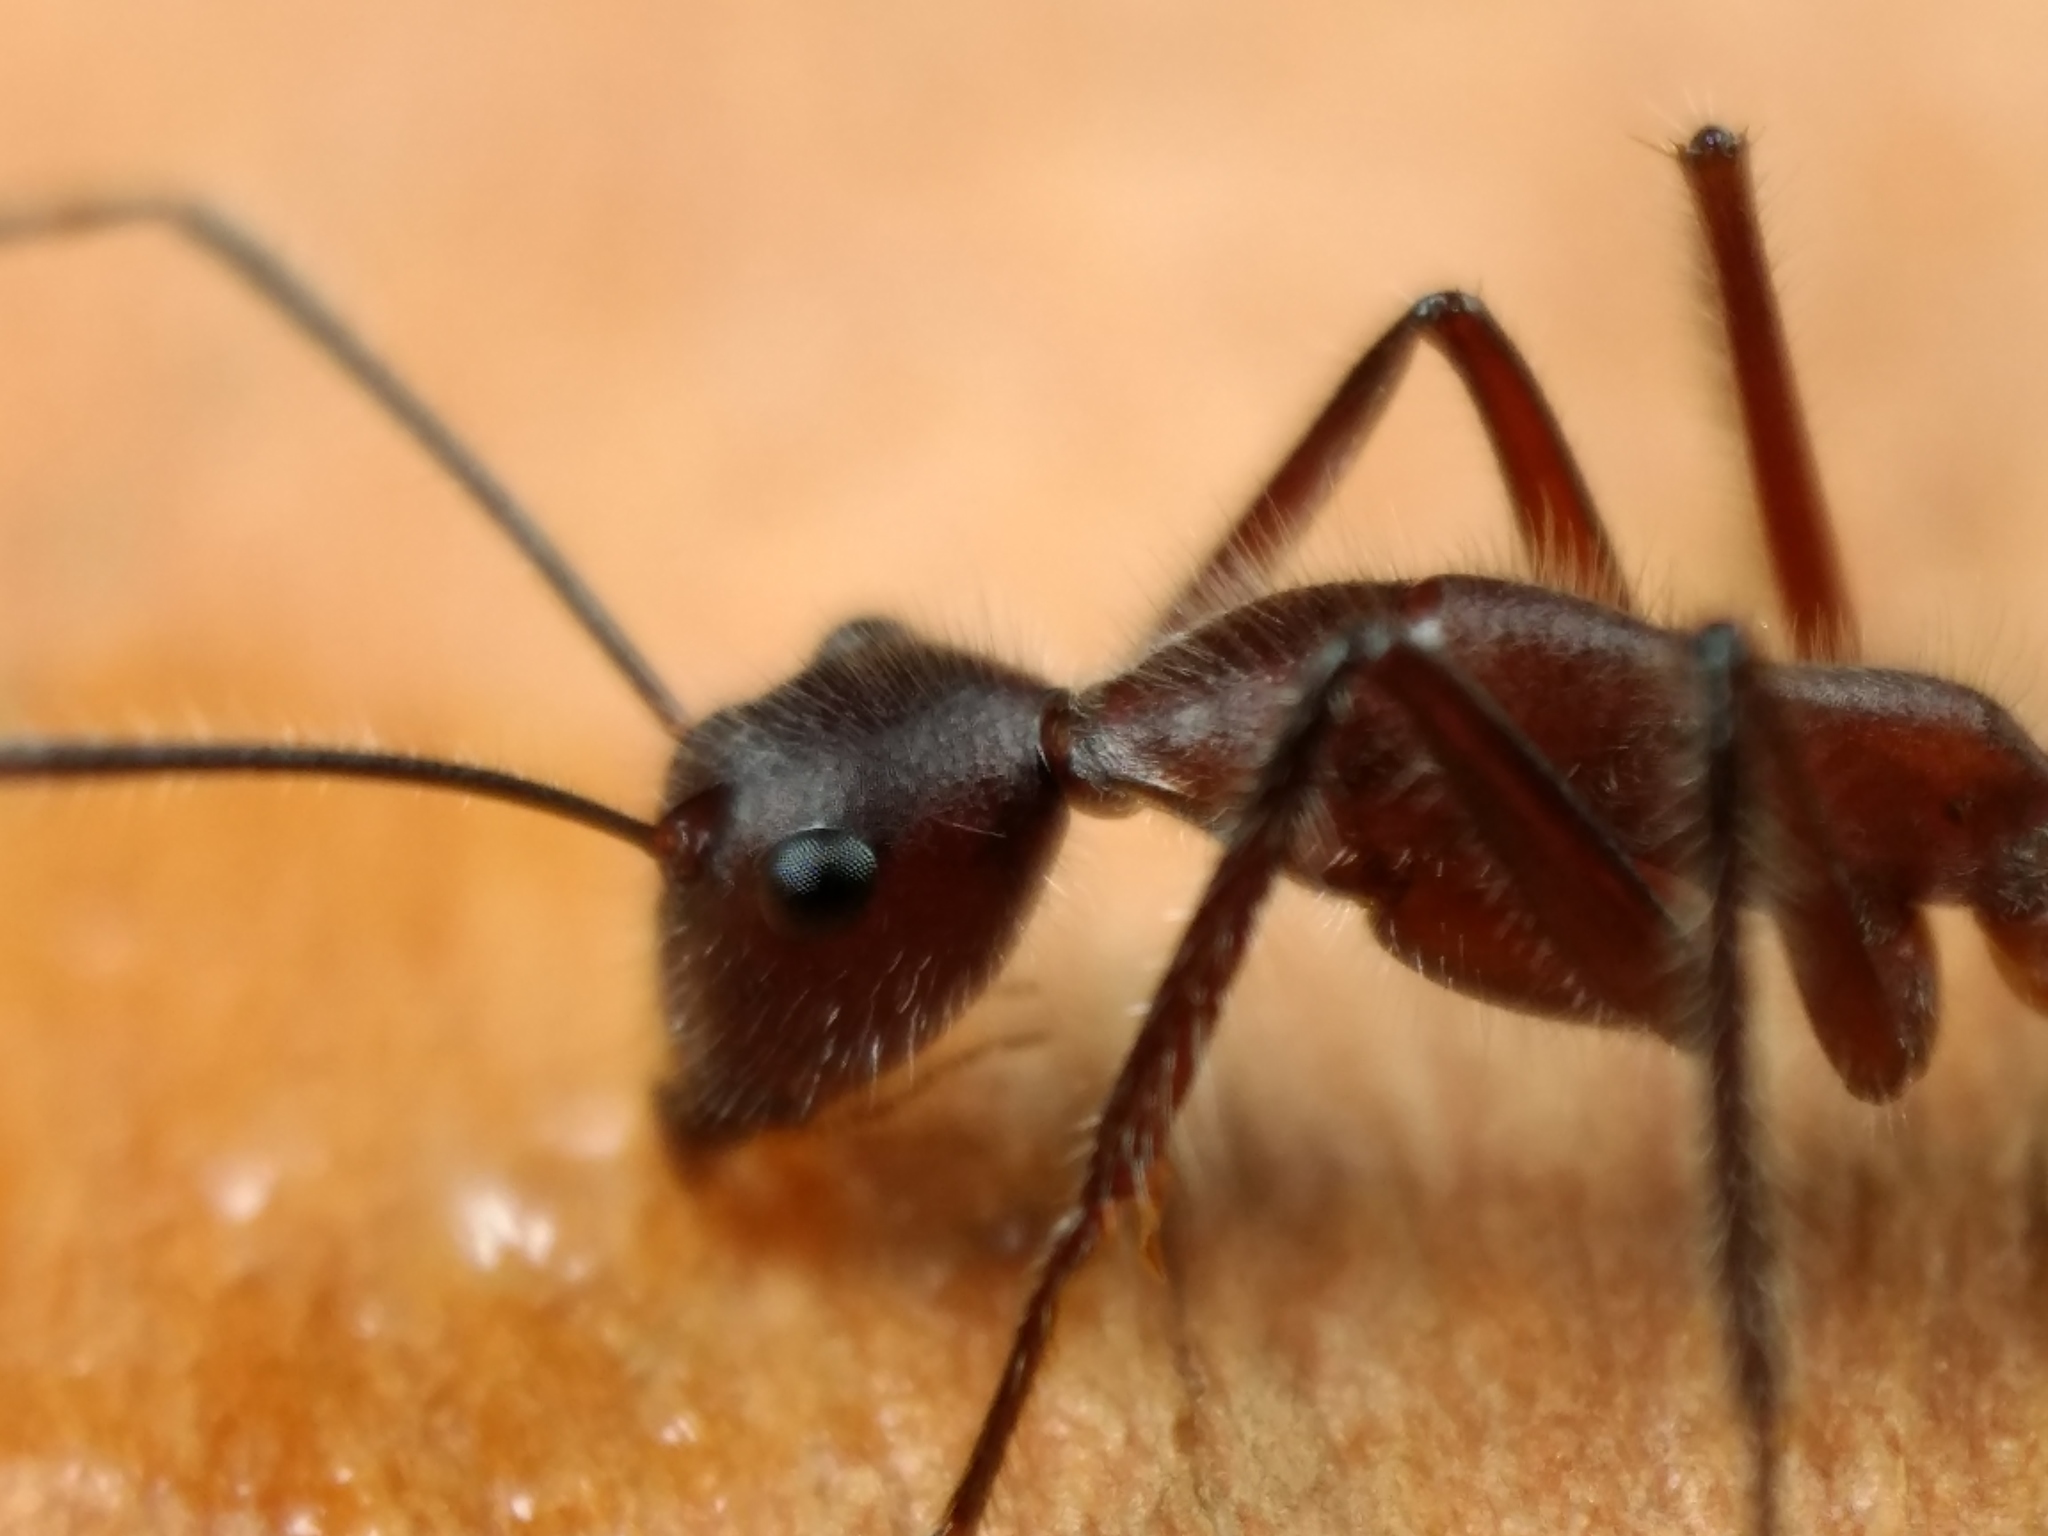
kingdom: Animalia
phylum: Arthropoda
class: Insecta
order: Hymenoptera
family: Formicidae
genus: Camponotus
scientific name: Camponotus intrepidus
